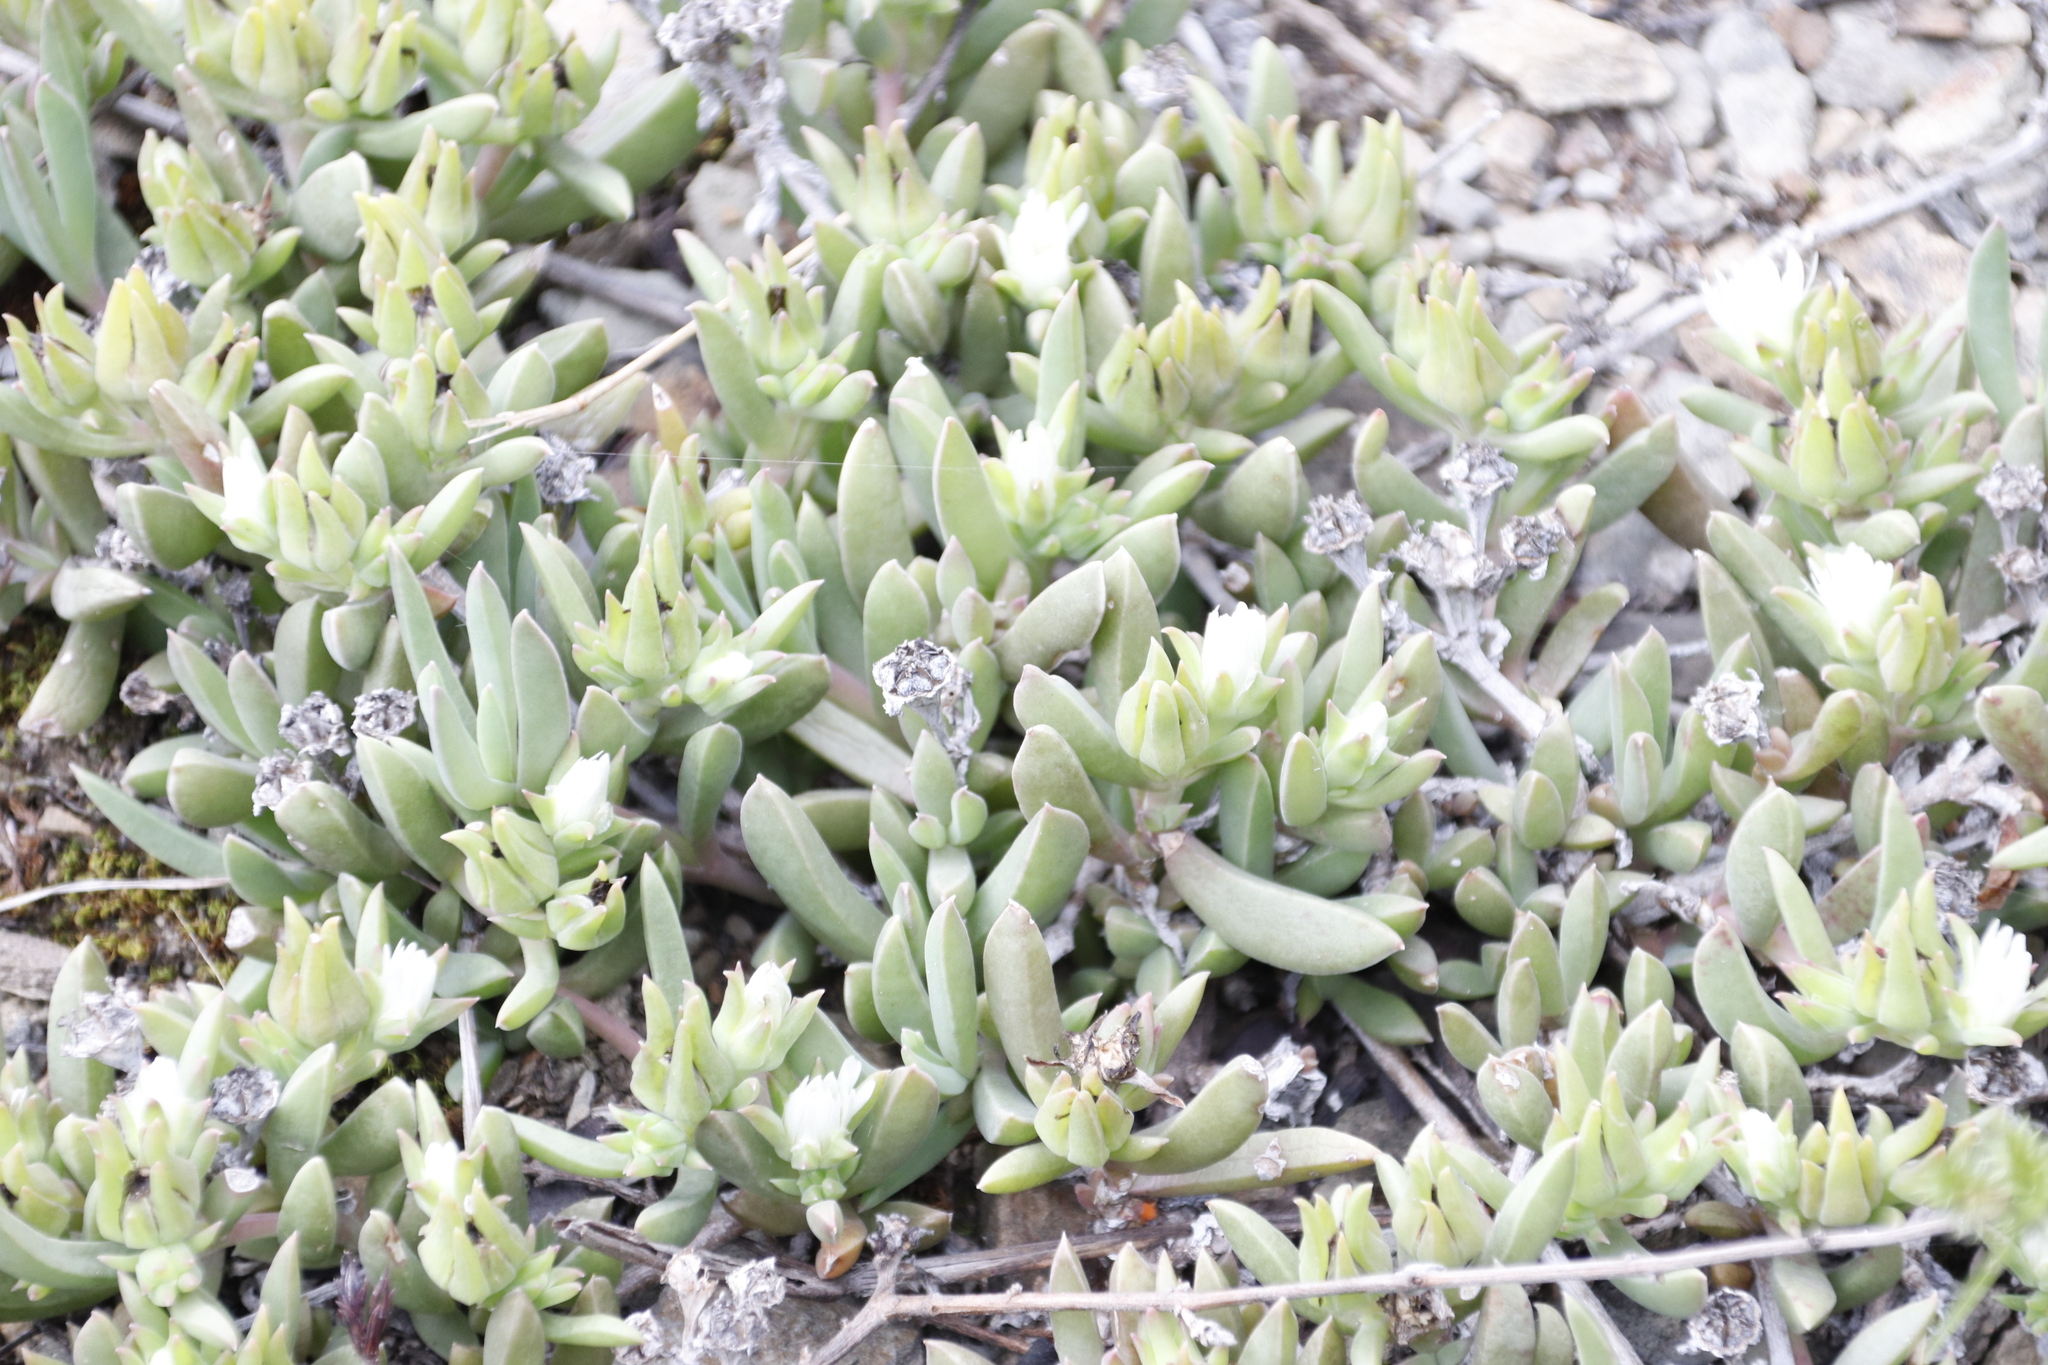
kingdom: Plantae
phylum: Tracheophyta
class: Magnoliopsida
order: Caryophyllales
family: Aizoaceae
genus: Delosperma
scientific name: Delosperma litorale
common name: Seaside delosperma
